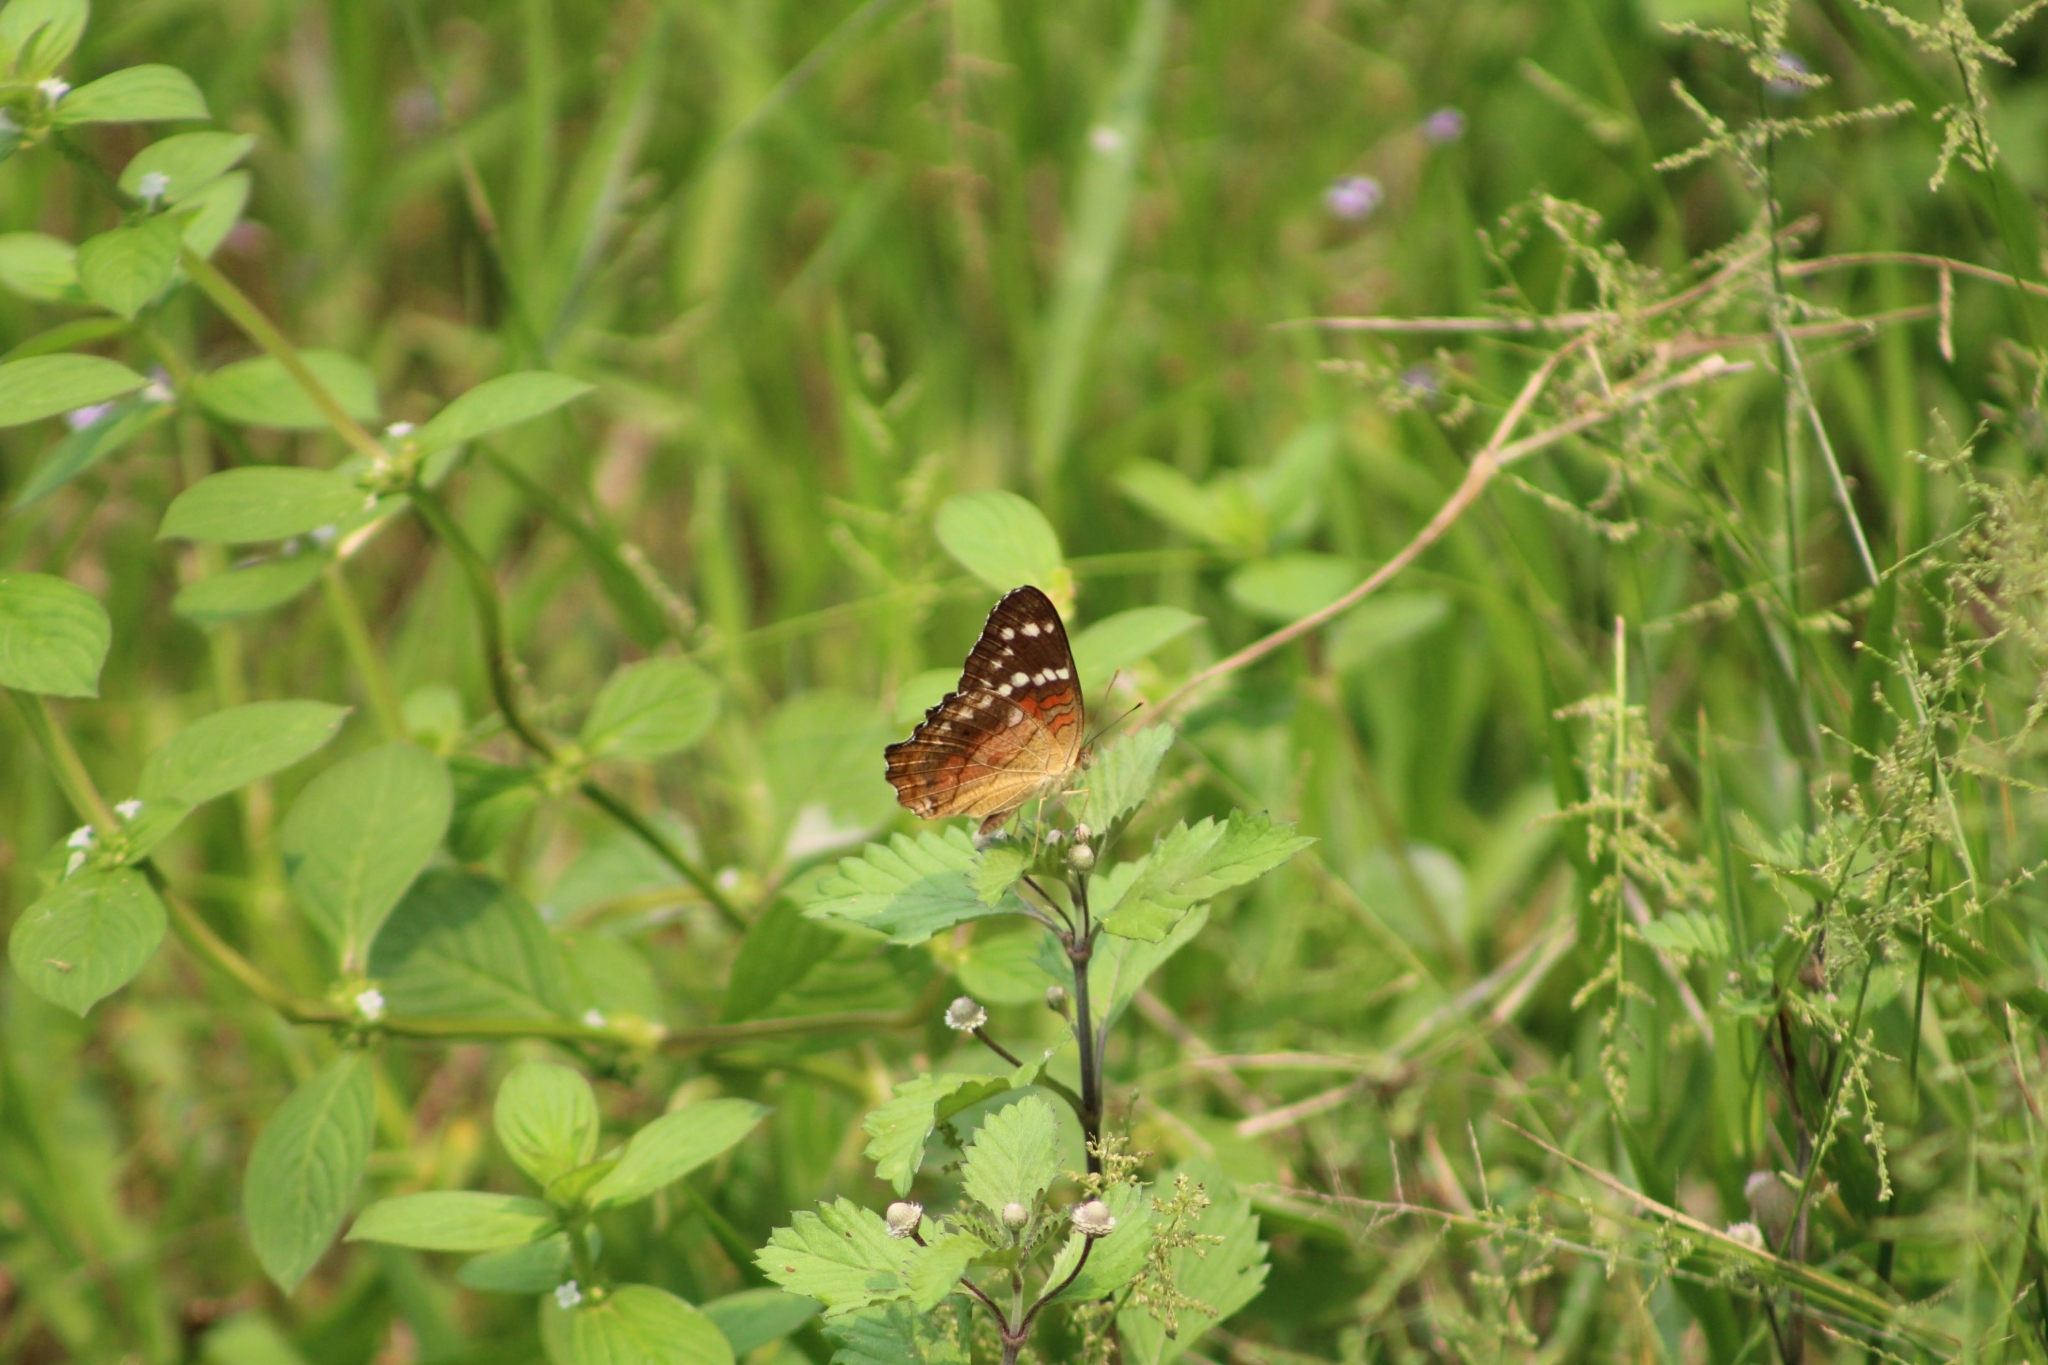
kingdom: Animalia
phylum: Arthropoda
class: Insecta
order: Lepidoptera
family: Nymphalidae
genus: Anartia
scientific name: Anartia amathea
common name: Red peacock
